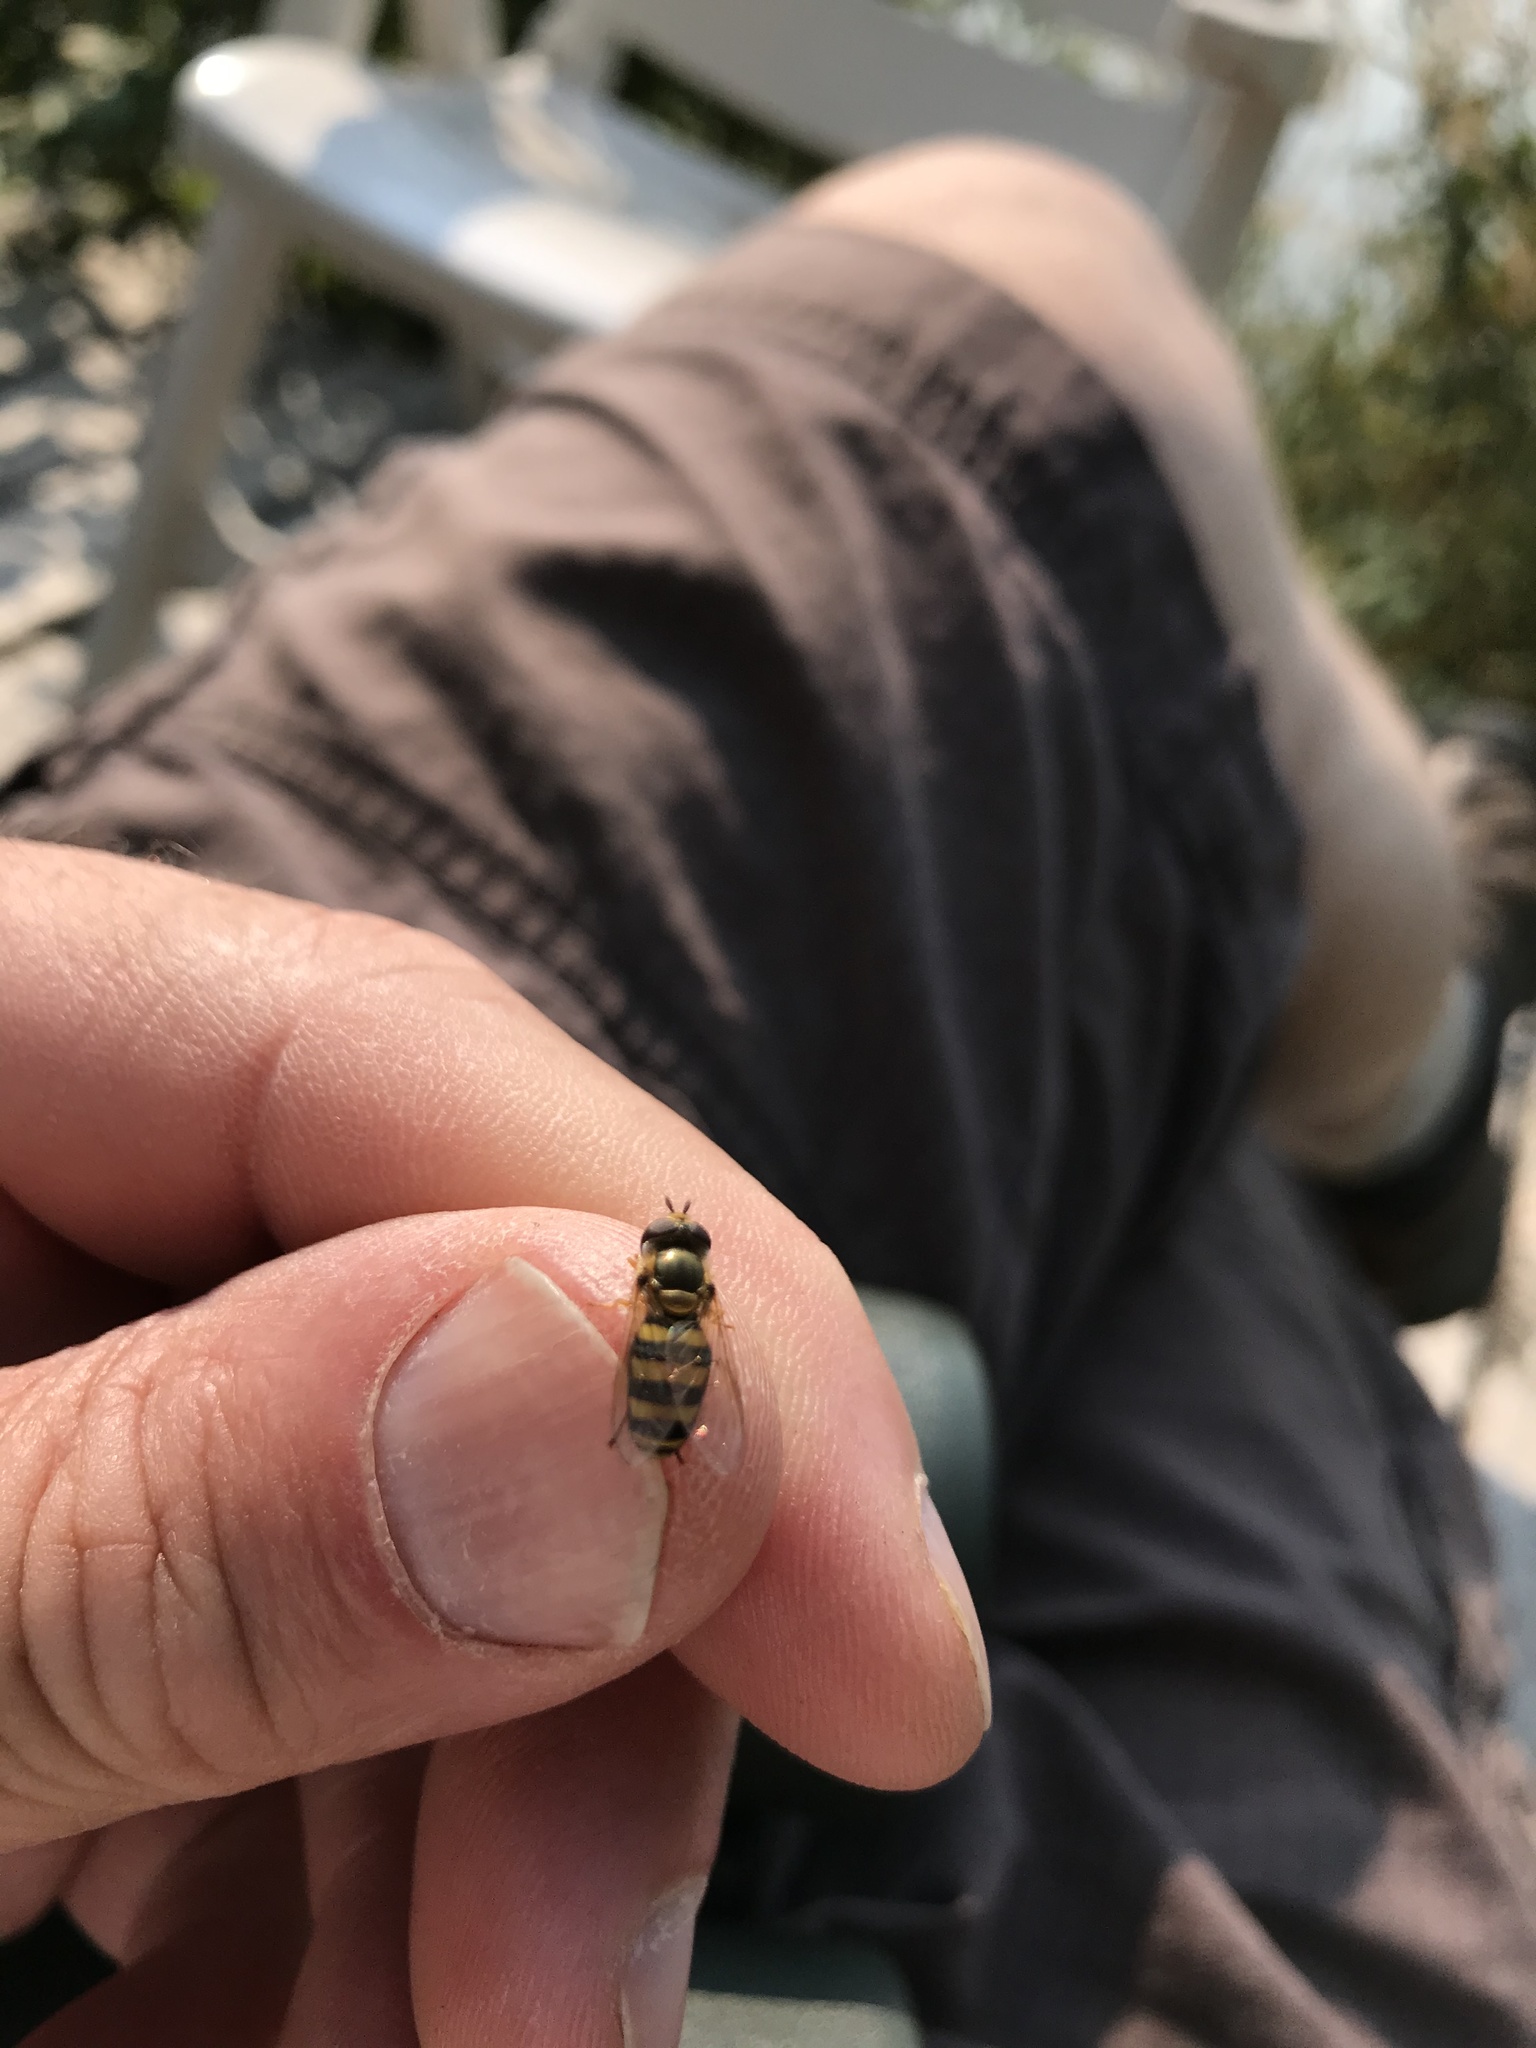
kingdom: Animalia
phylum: Arthropoda
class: Insecta
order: Diptera
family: Syrphidae
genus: Eupeodes
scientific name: Eupeodes
